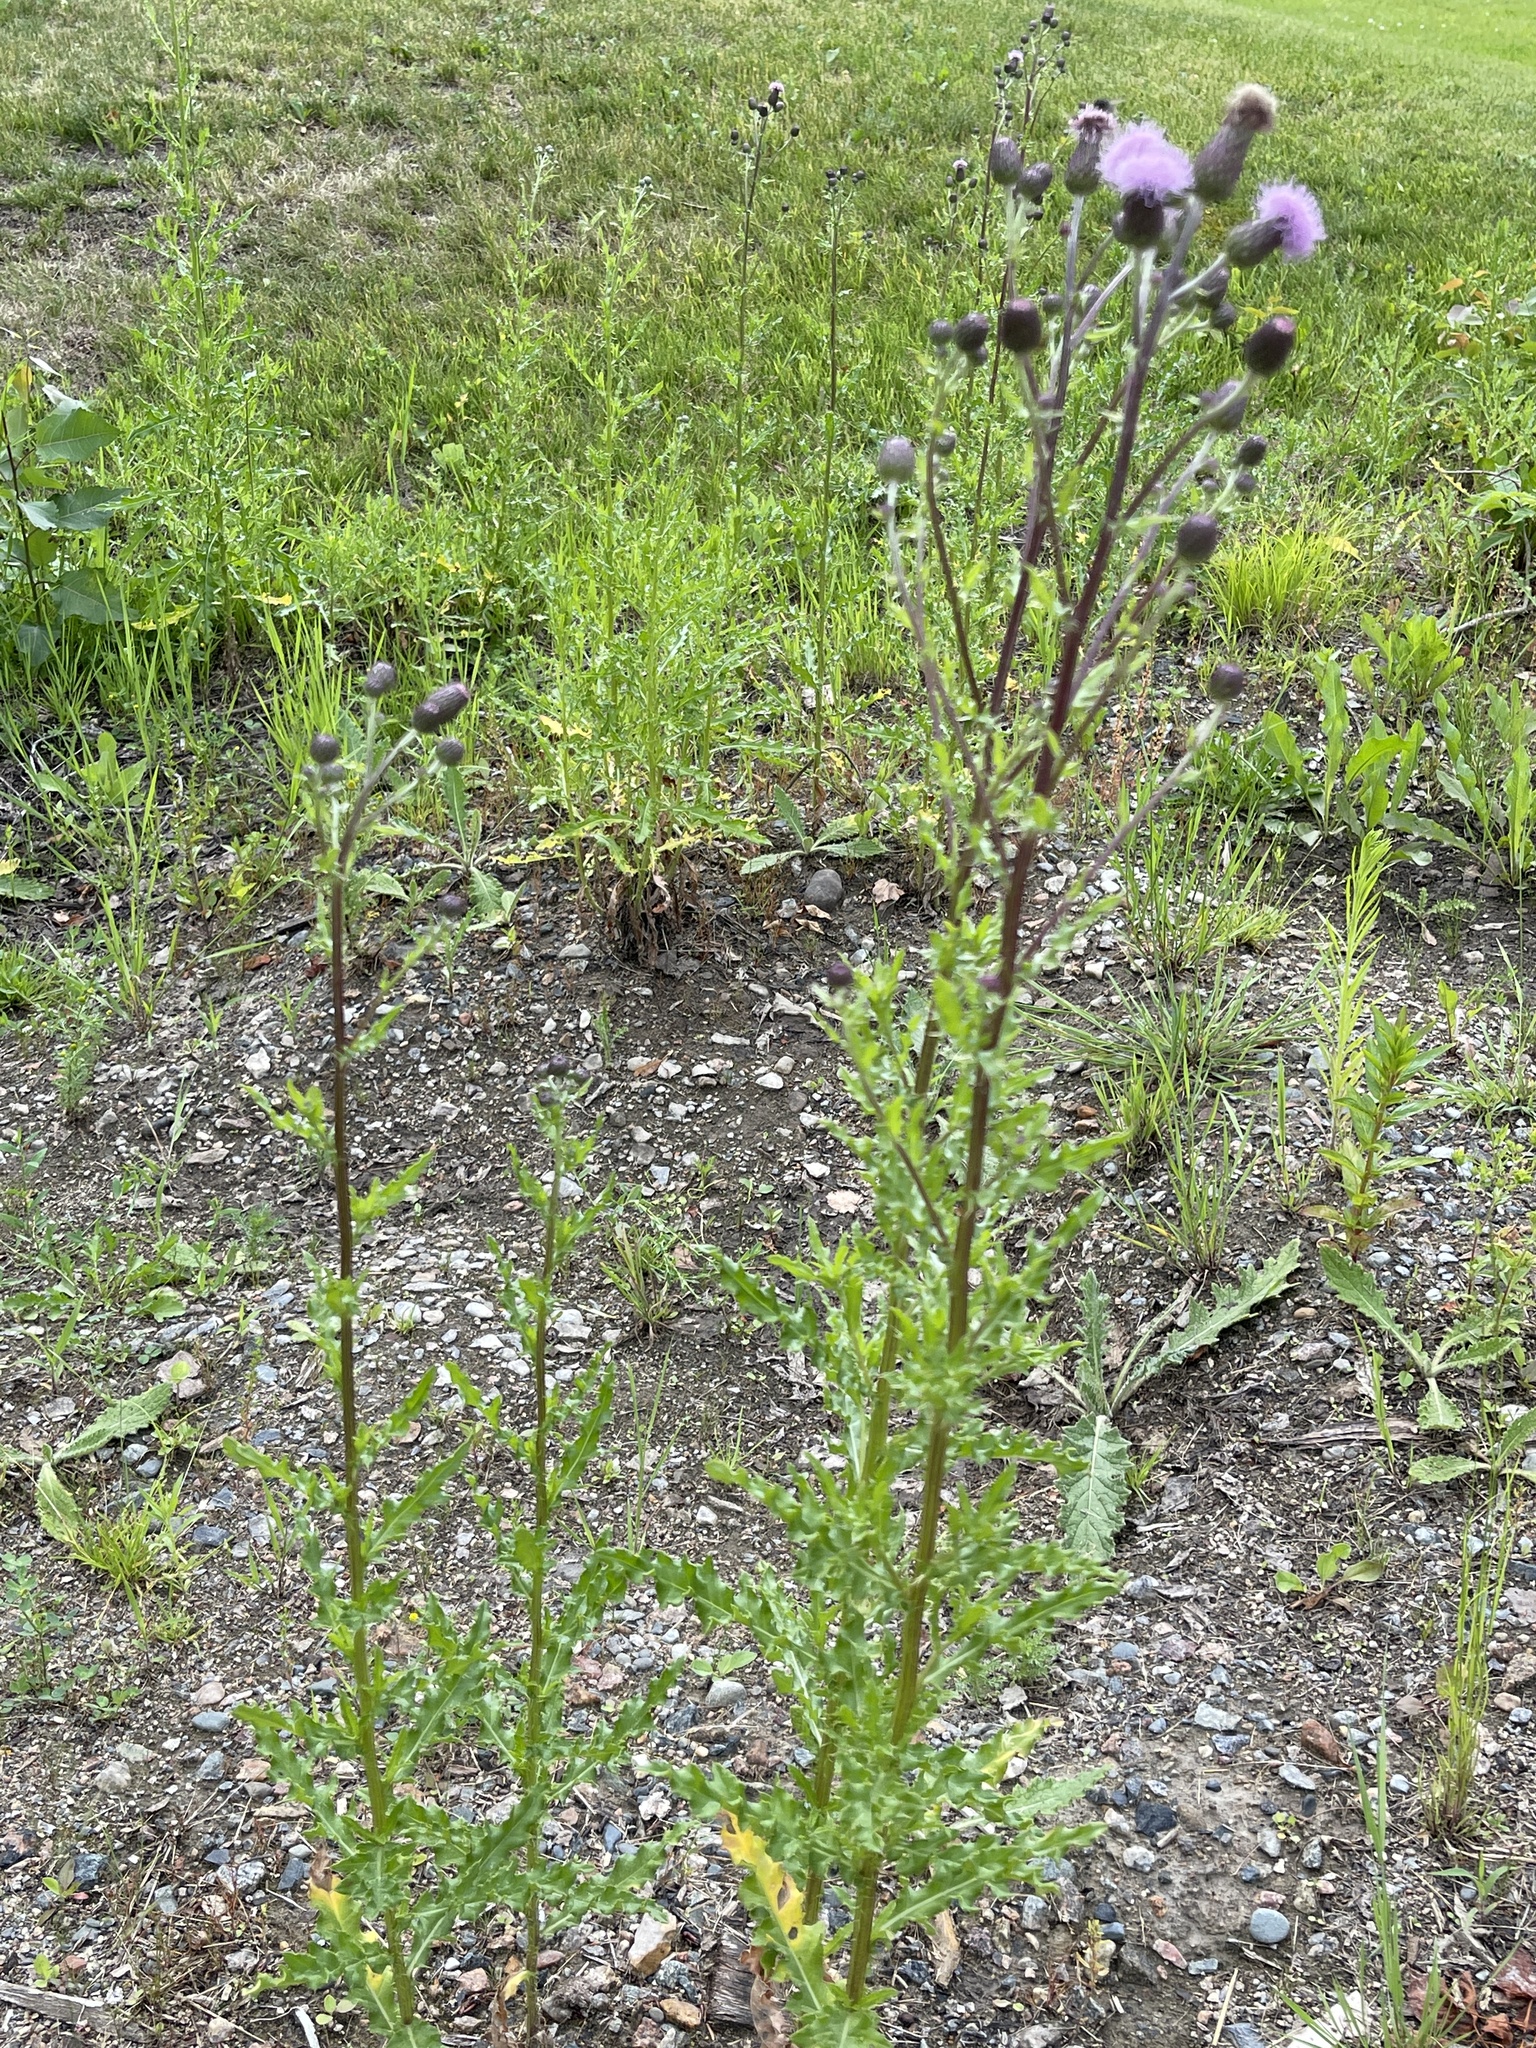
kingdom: Plantae
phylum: Tracheophyta
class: Magnoliopsida
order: Asterales
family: Asteraceae
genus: Cirsium
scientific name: Cirsium arvense
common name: Creeping thistle
